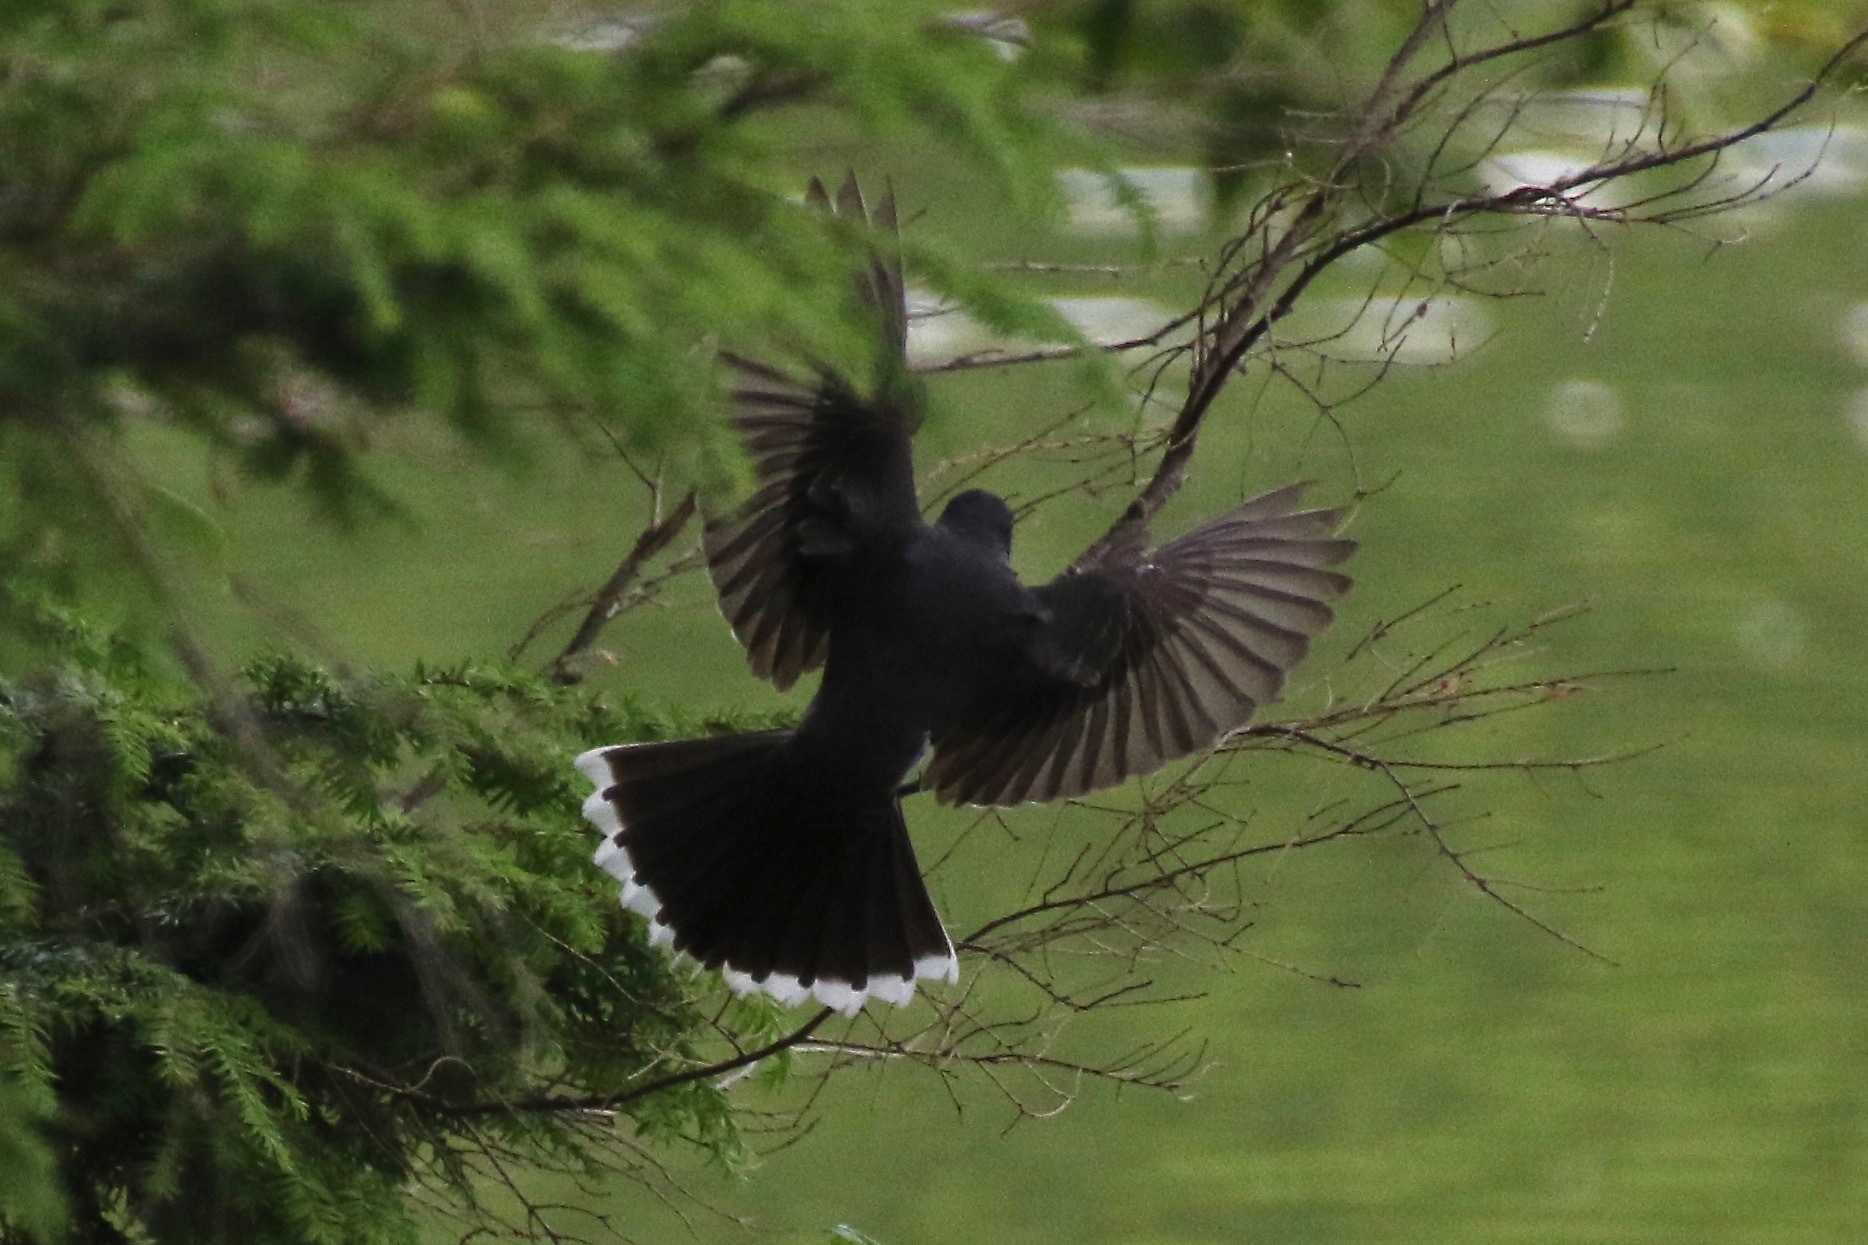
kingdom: Animalia
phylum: Chordata
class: Aves
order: Passeriformes
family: Tyrannidae
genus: Tyrannus
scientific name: Tyrannus tyrannus
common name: Eastern kingbird
